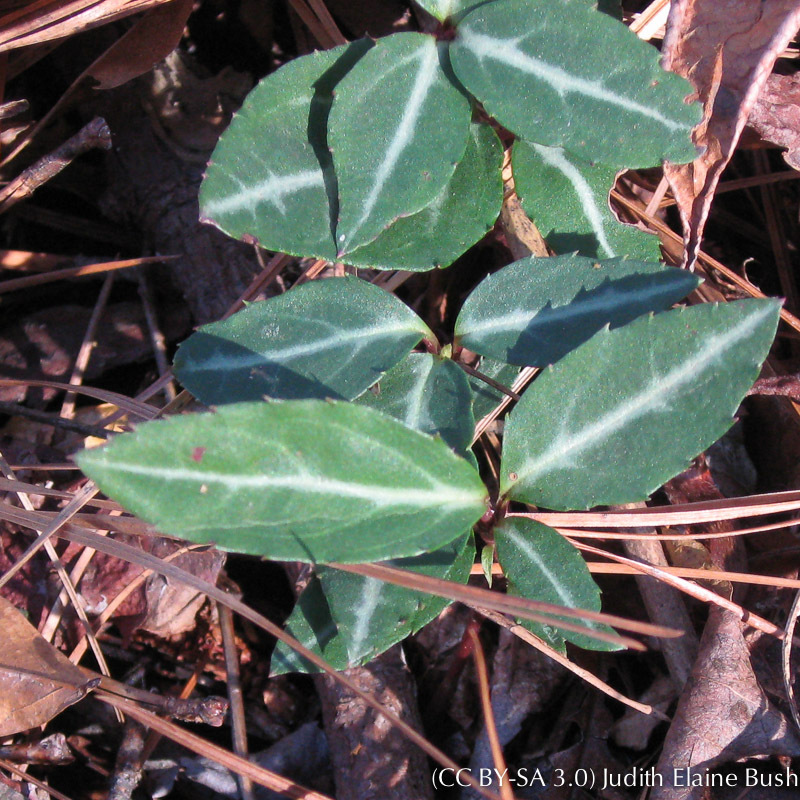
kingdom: Plantae
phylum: Tracheophyta
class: Magnoliopsida
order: Ericales
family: Ericaceae
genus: Chimaphila
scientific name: Chimaphila maculata
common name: Spotted pipsissewa
